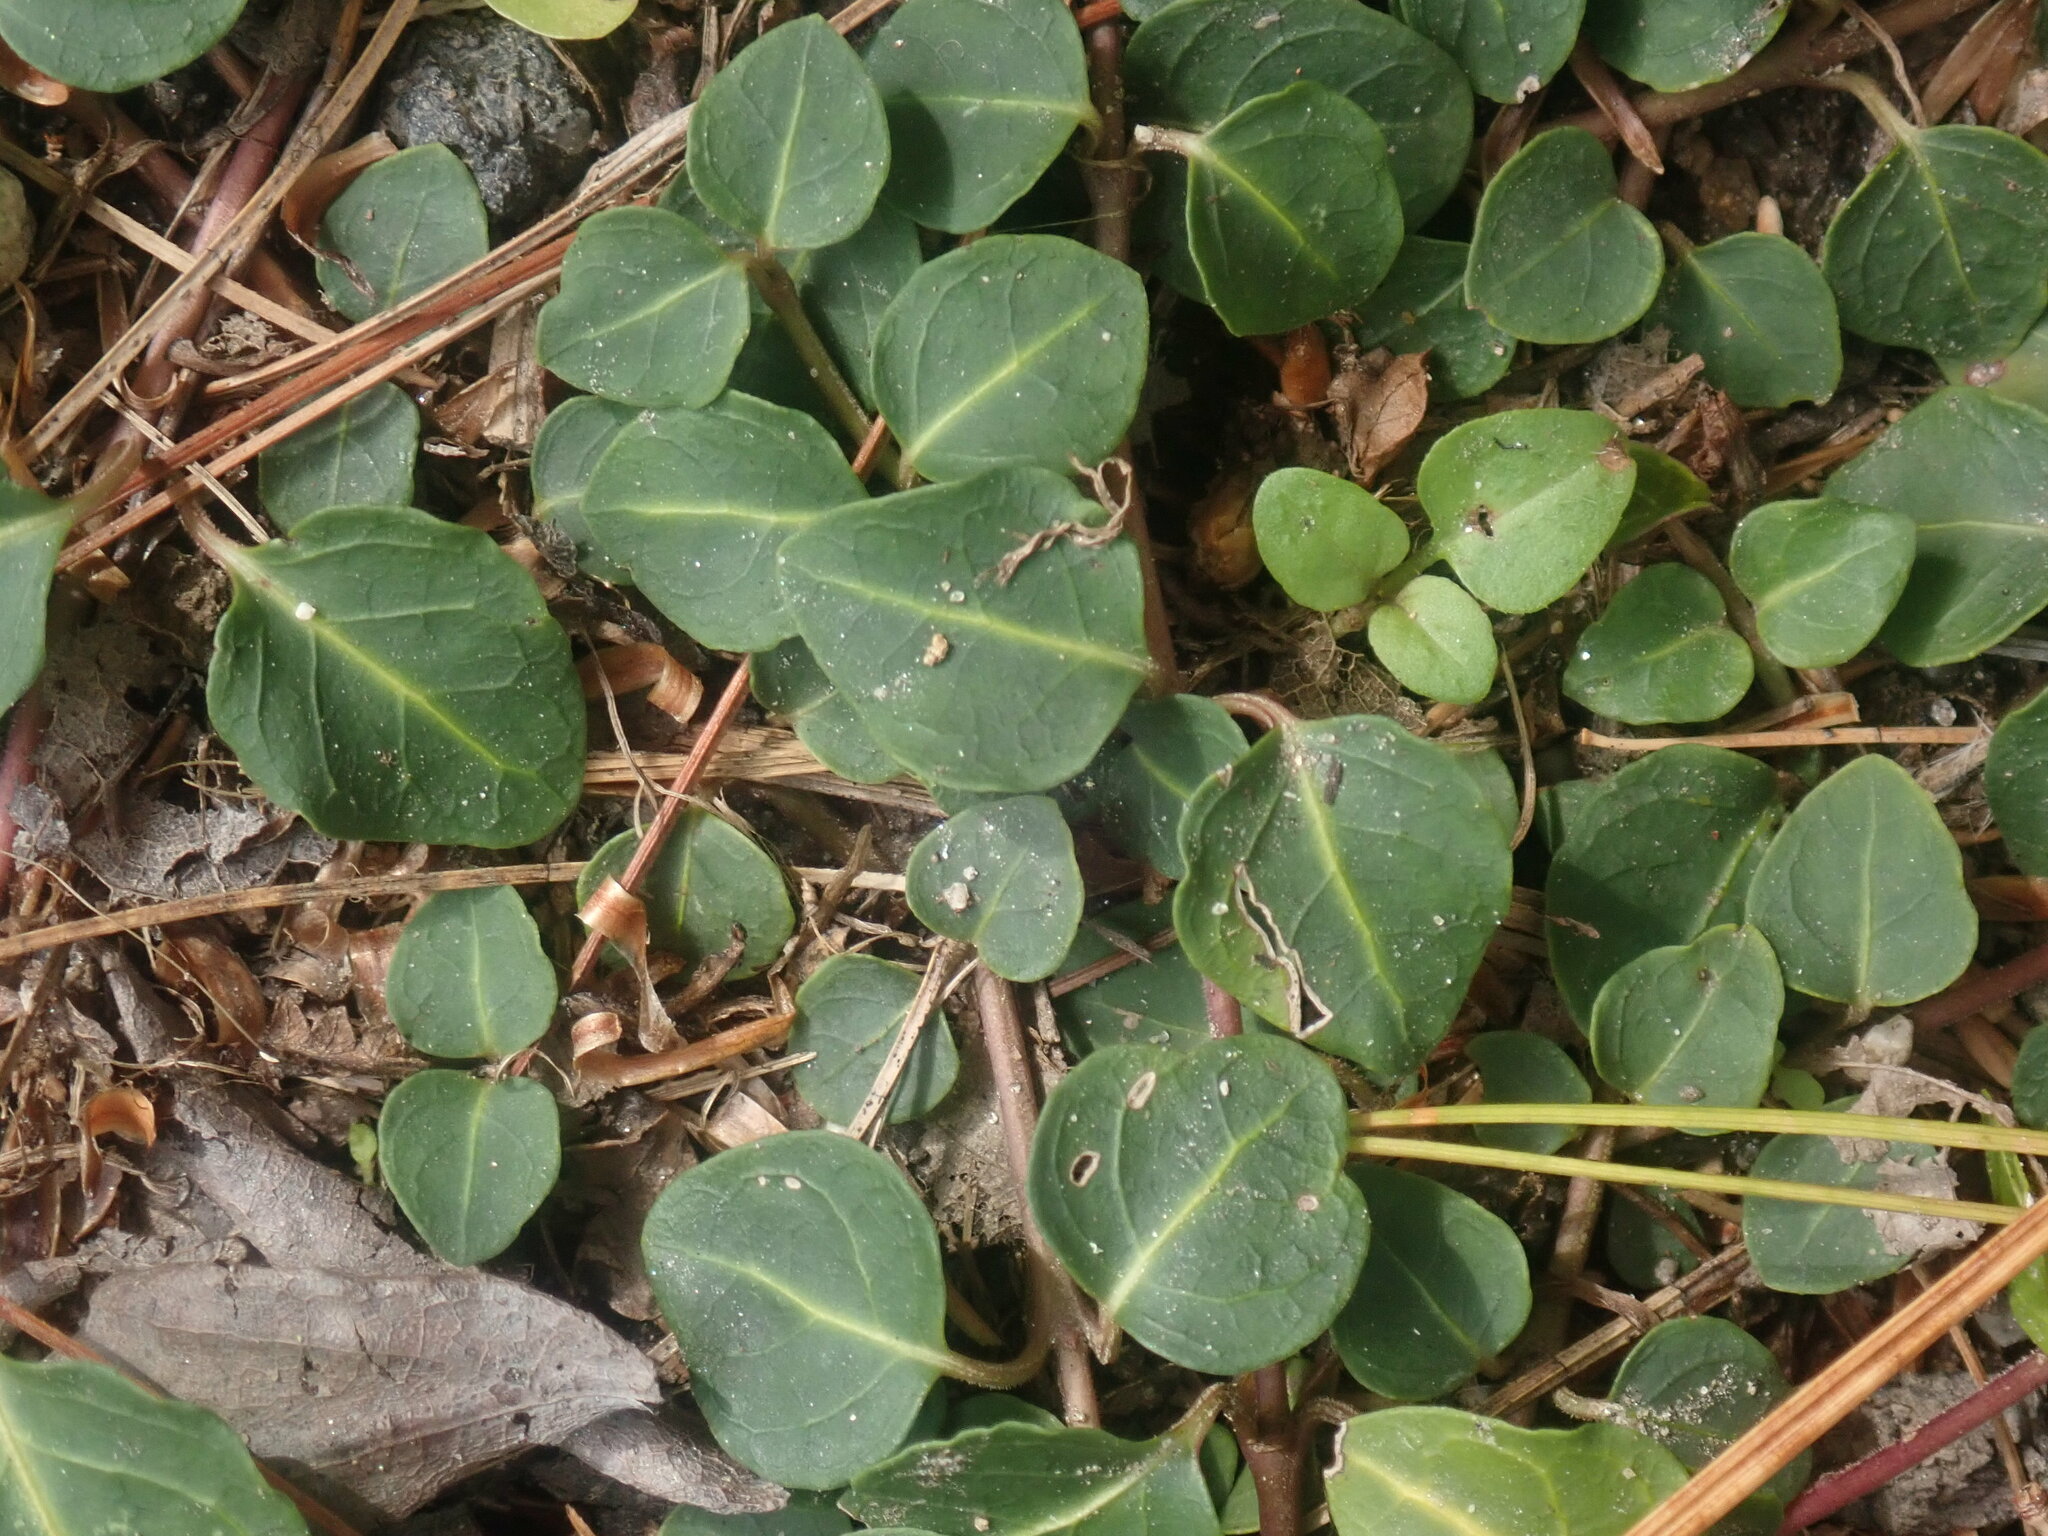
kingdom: Plantae
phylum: Tracheophyta
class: Magnoliopsida
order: Gentianales
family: Rubiaceae
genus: Mitchella
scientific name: Mitchella repens
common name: Partridge-berry
